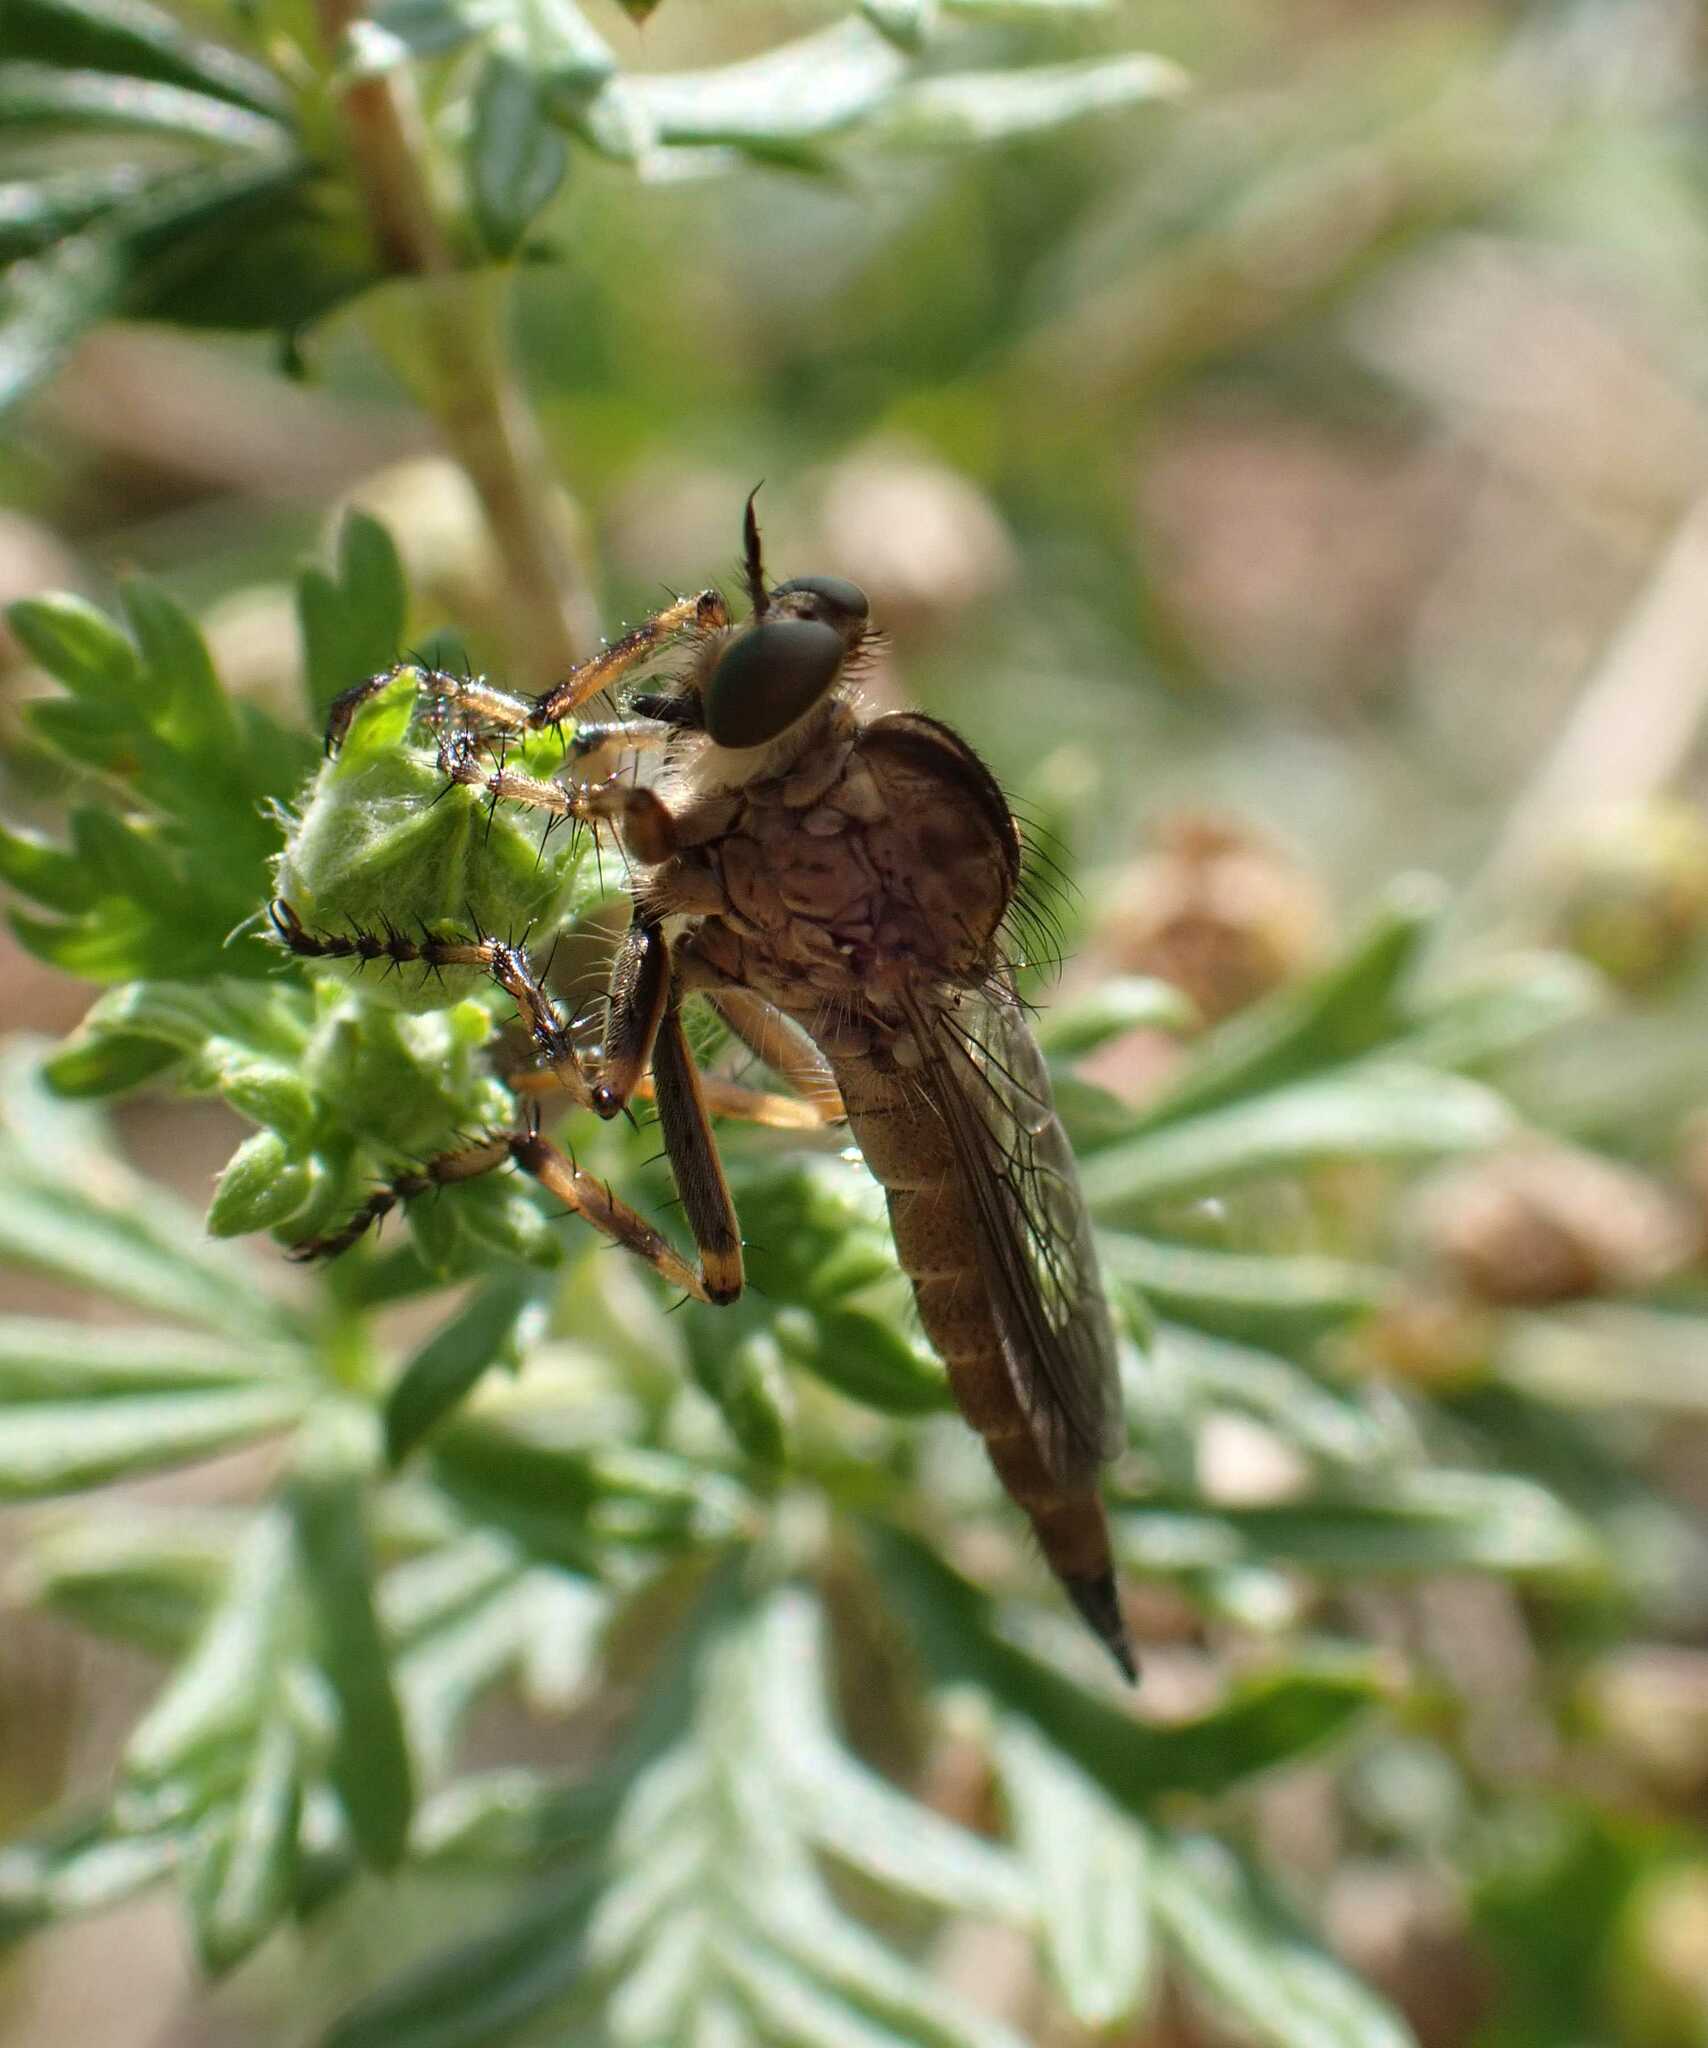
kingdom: Animalia
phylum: Arthropoda
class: Insecta
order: Diptera
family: Asilidae
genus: Epitriptus
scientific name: Epitriptus cingulatus
